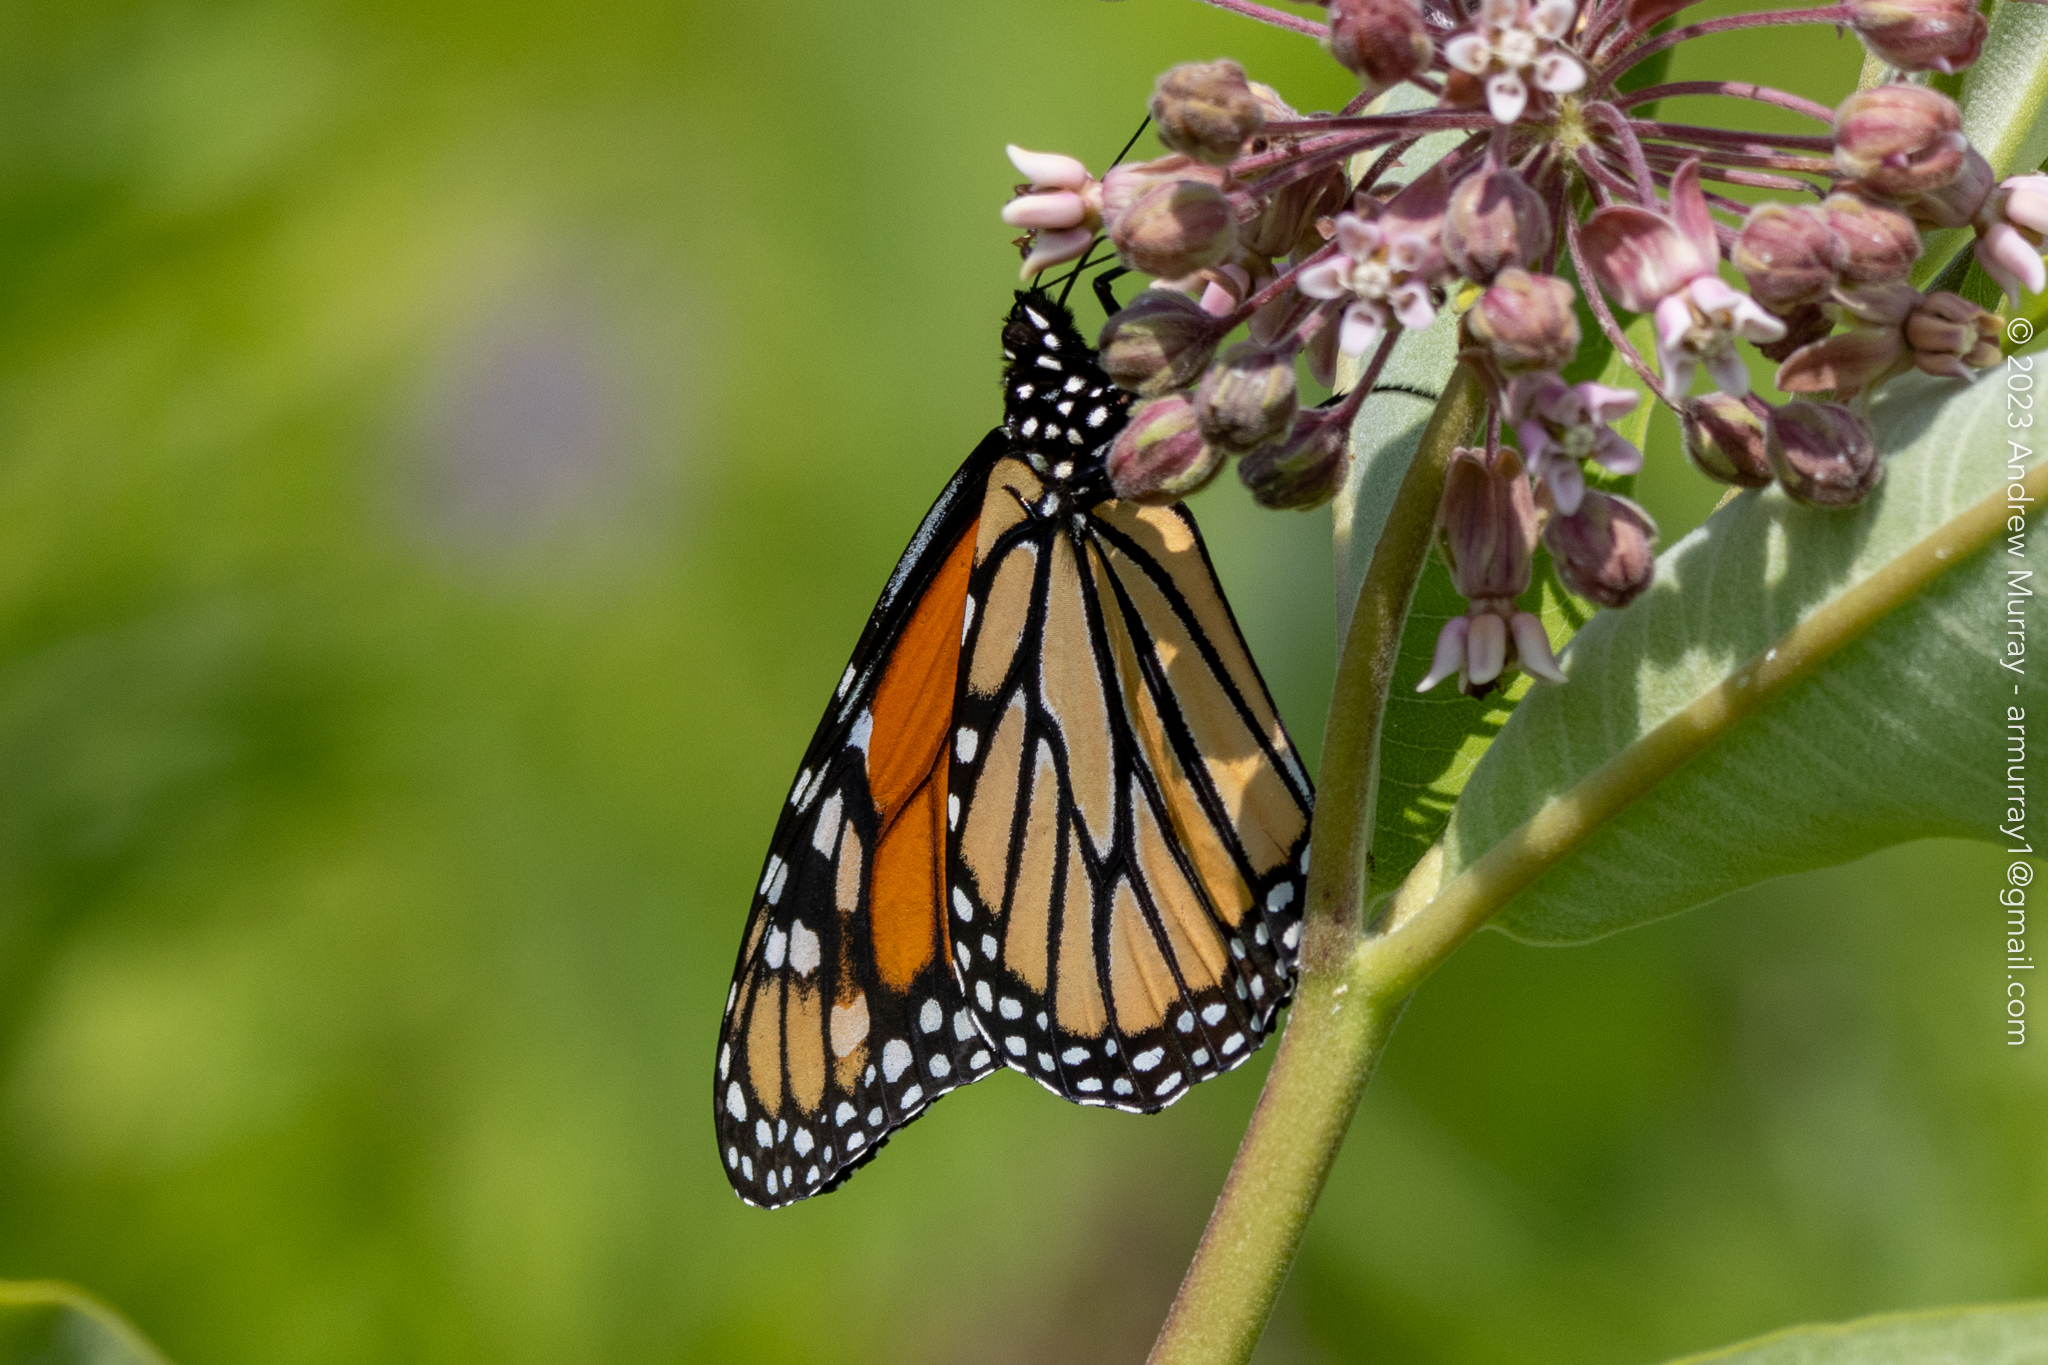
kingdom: Animalia
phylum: Arthropoda
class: Insecta
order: Lepidoptera
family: Nymphalidae
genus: Danaus
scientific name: Danaus plexippus
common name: Monarch
